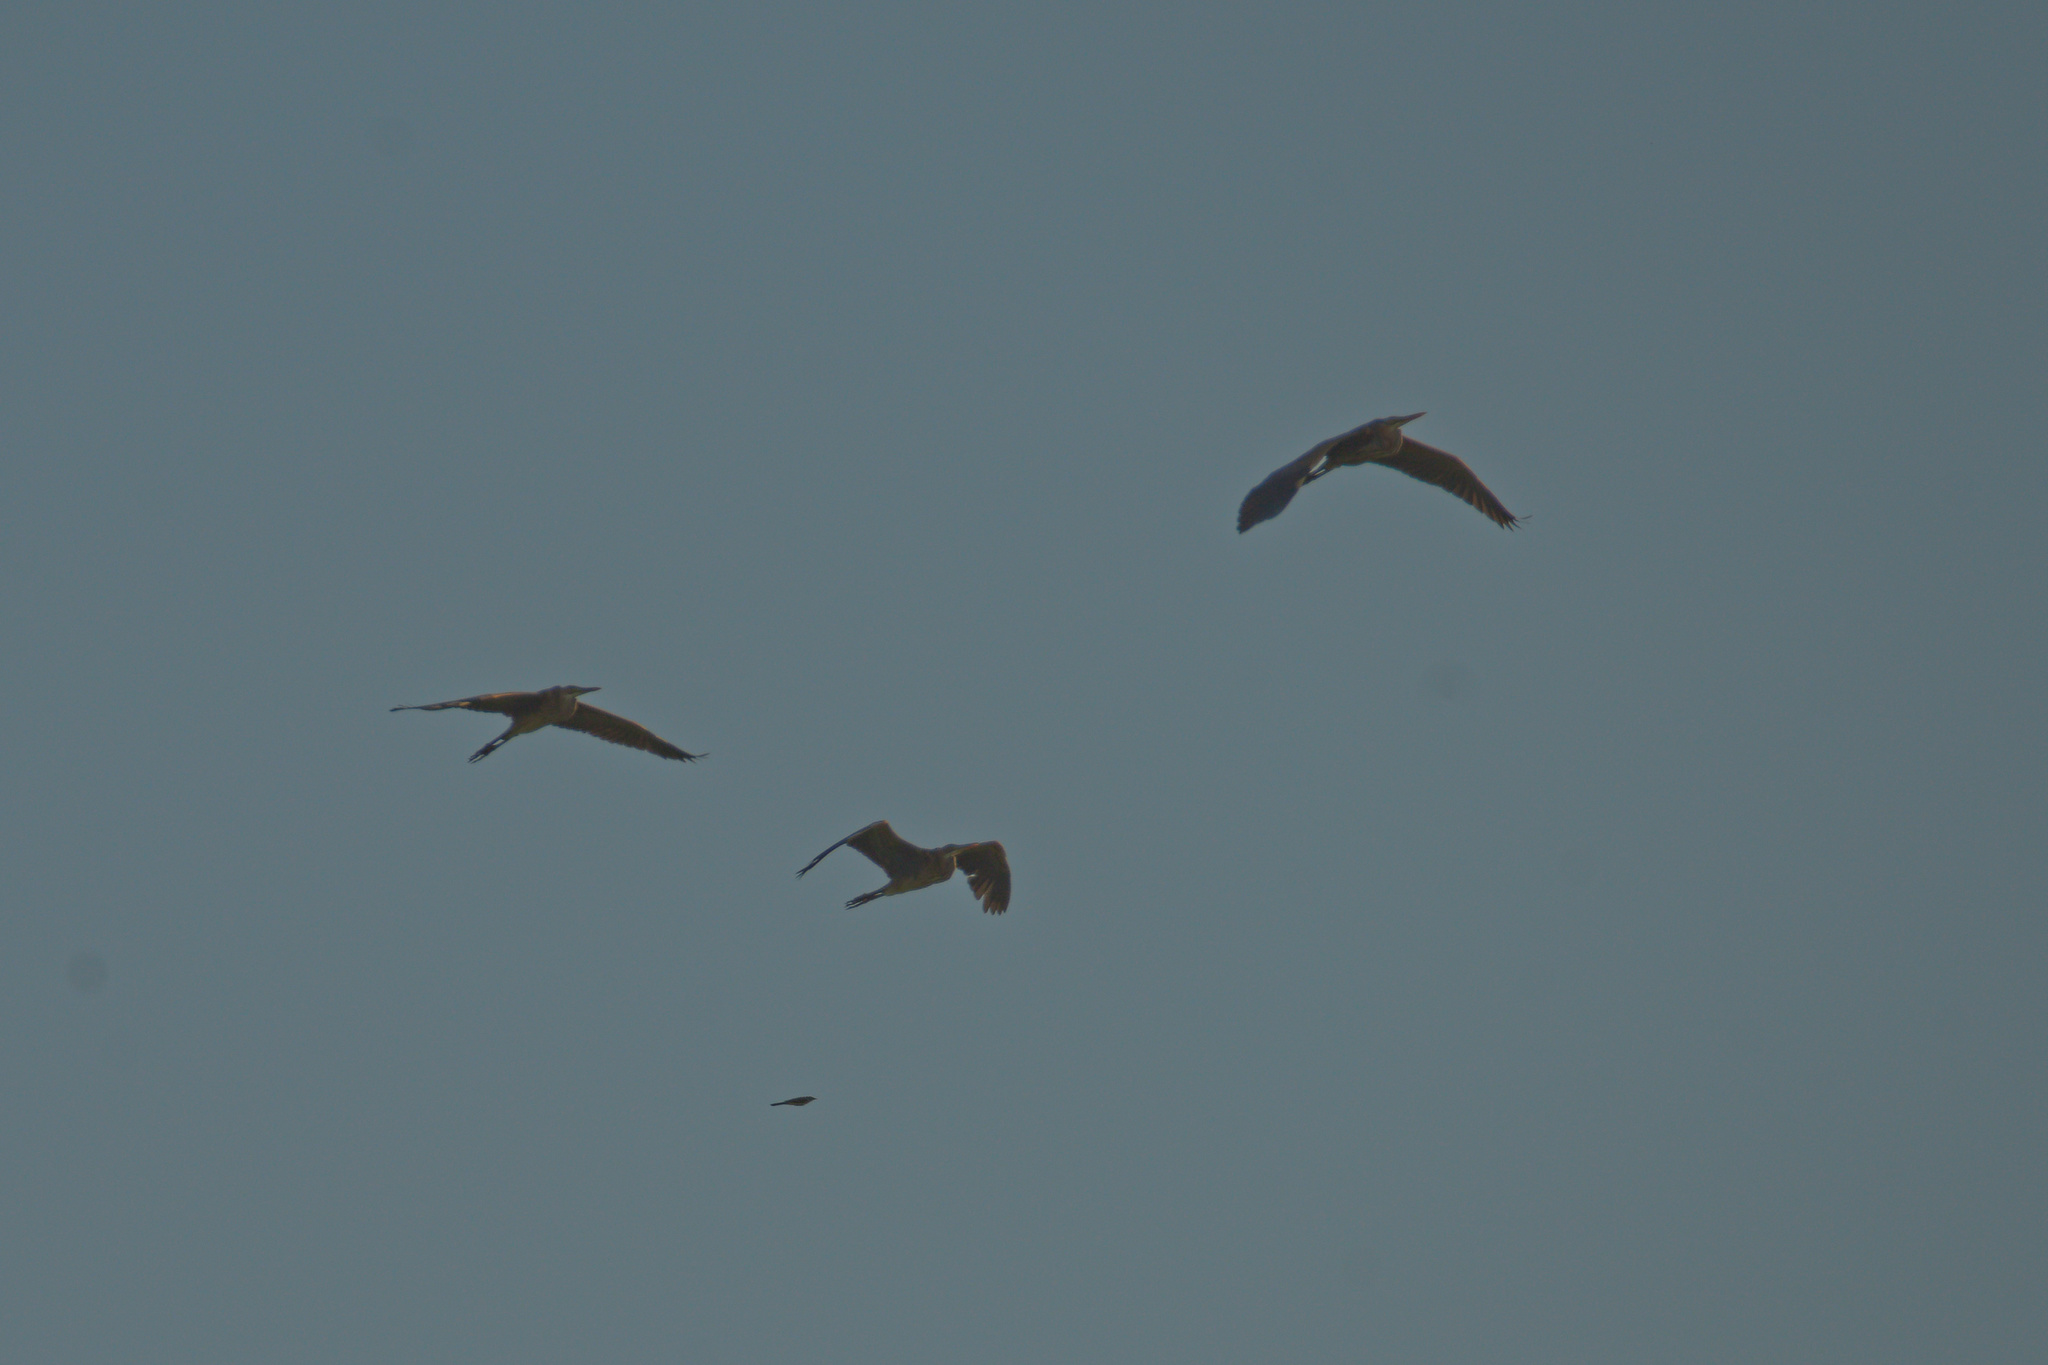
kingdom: Animalia
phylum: Chordata
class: Aves
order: Pelecaniformes
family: Ardeidae
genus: Ardea
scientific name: Ardea purpurea
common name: Purple heron
